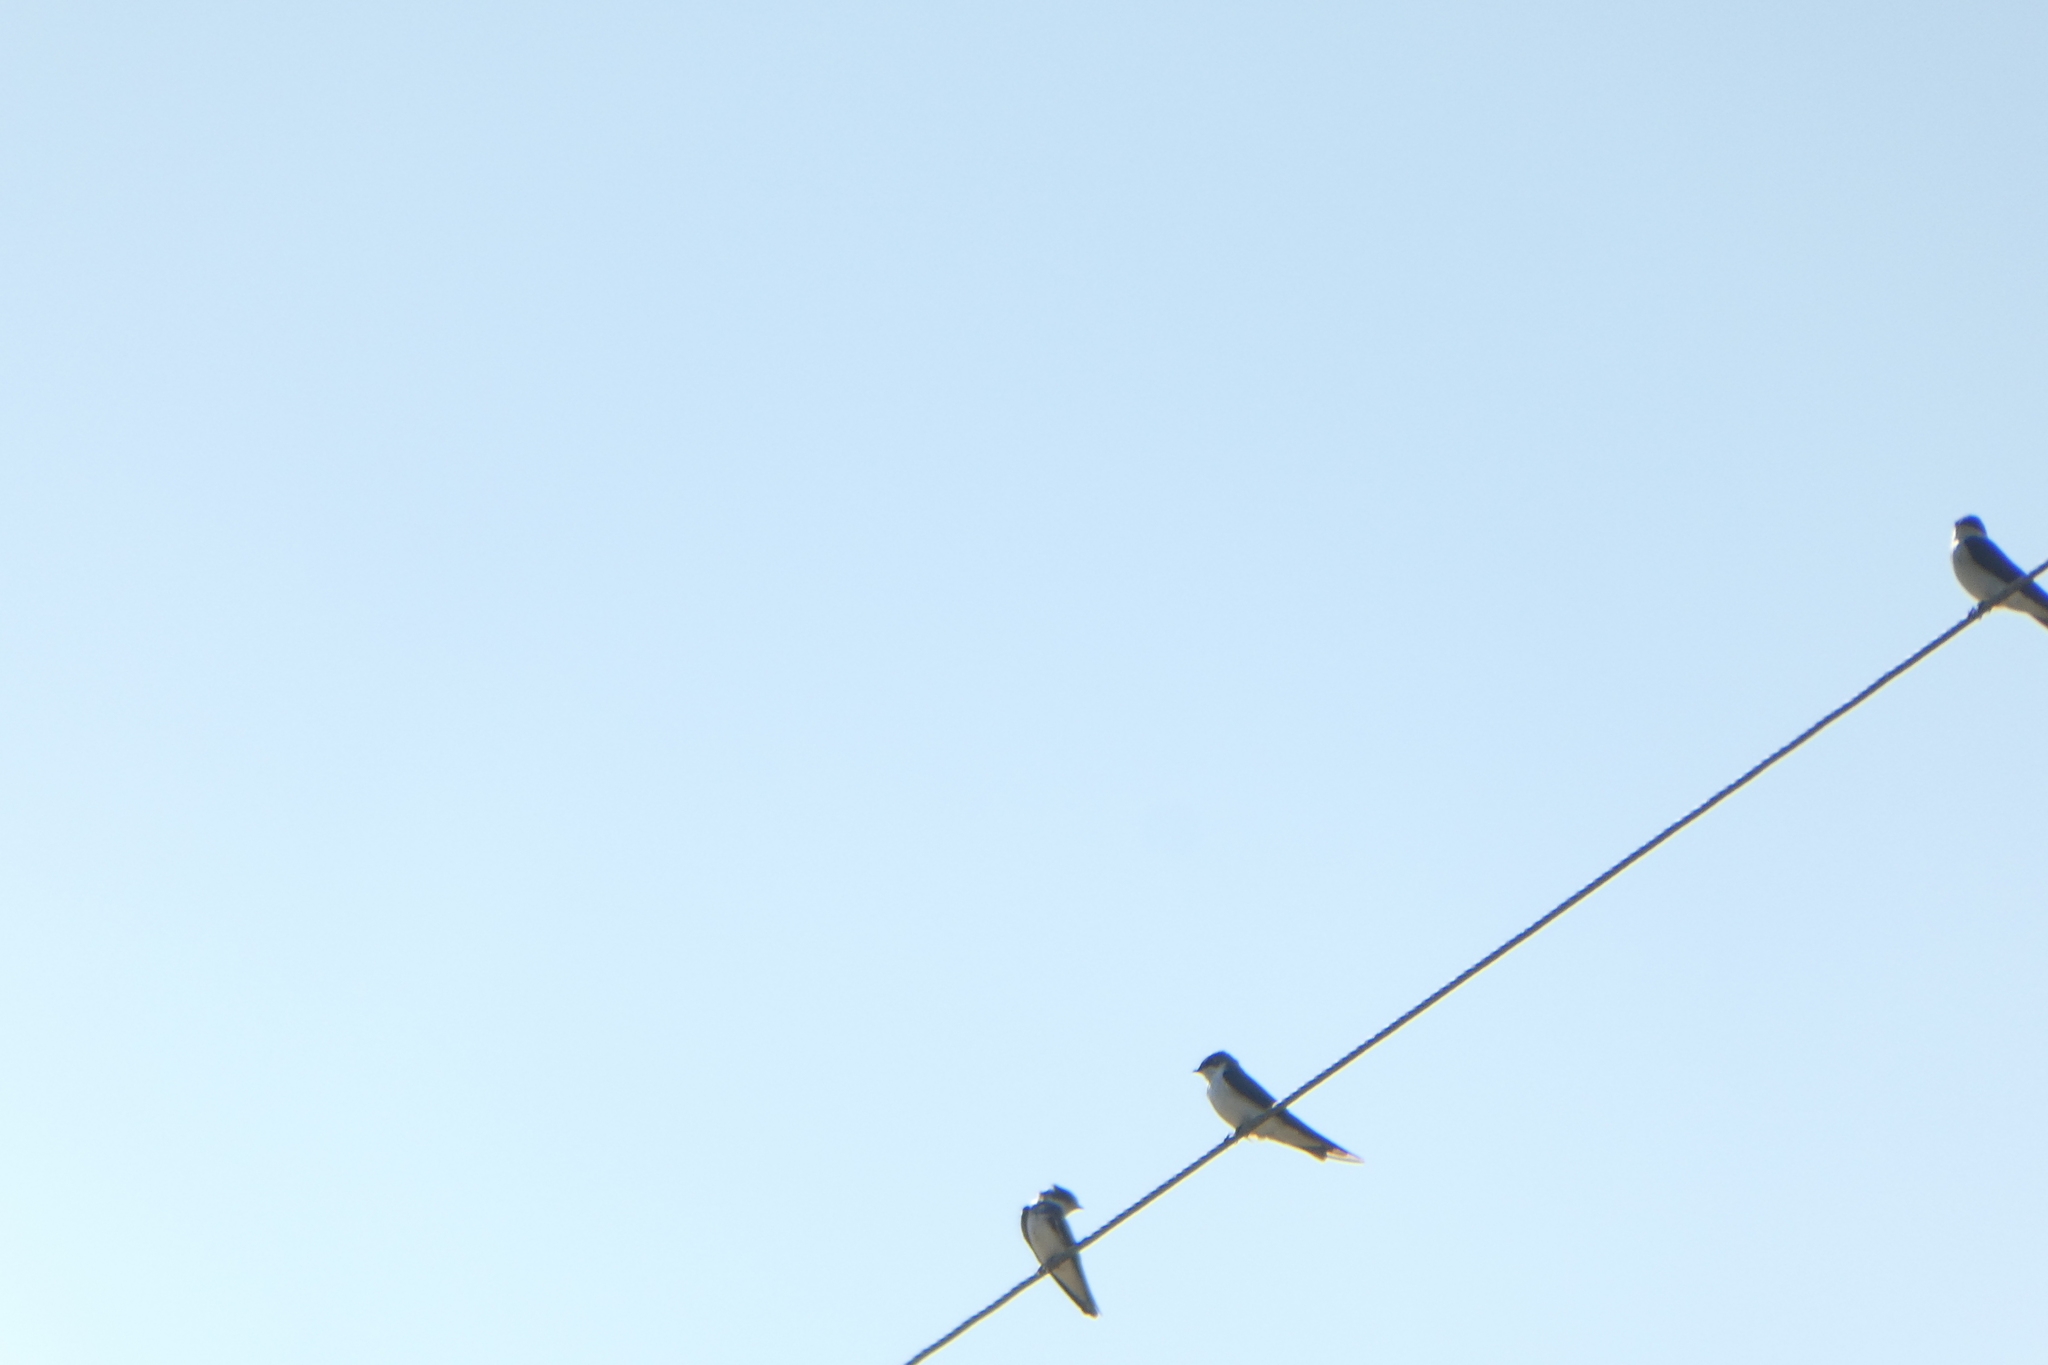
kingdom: Animalia
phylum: Chordata
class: Aves
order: Passeriformes
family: Hirundinidae
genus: Tachycineta
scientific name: Tachycineta bicolor
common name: Tree swallow
